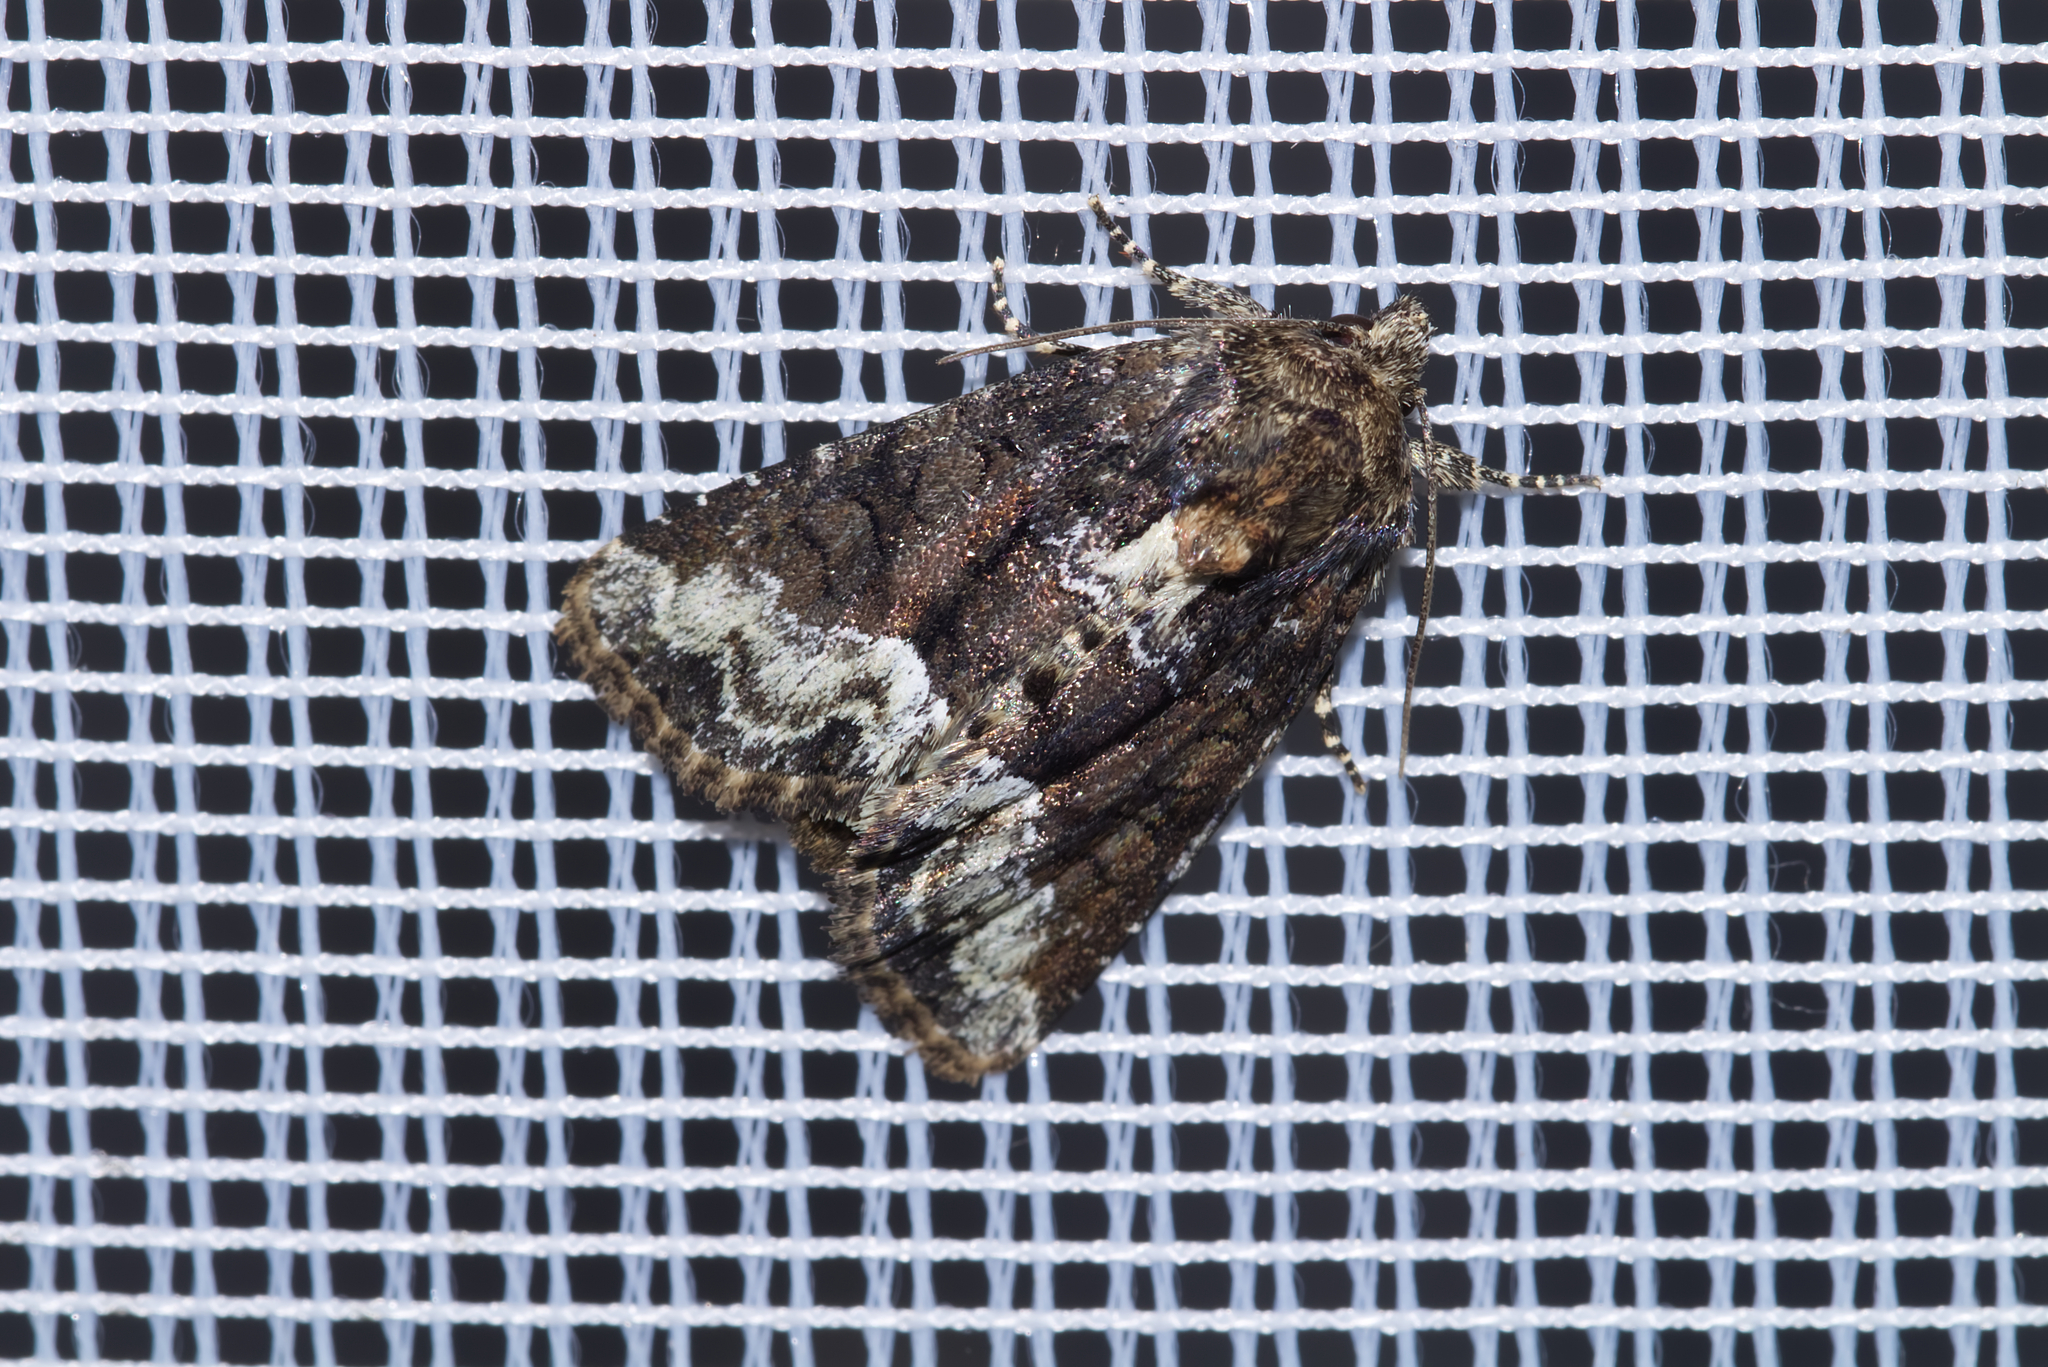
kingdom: Animalia
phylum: Arthropoda
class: Insecta
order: Lepidoptera
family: Noctuidae
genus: Oligia
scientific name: Oligia strigilis
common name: Marbled minor
